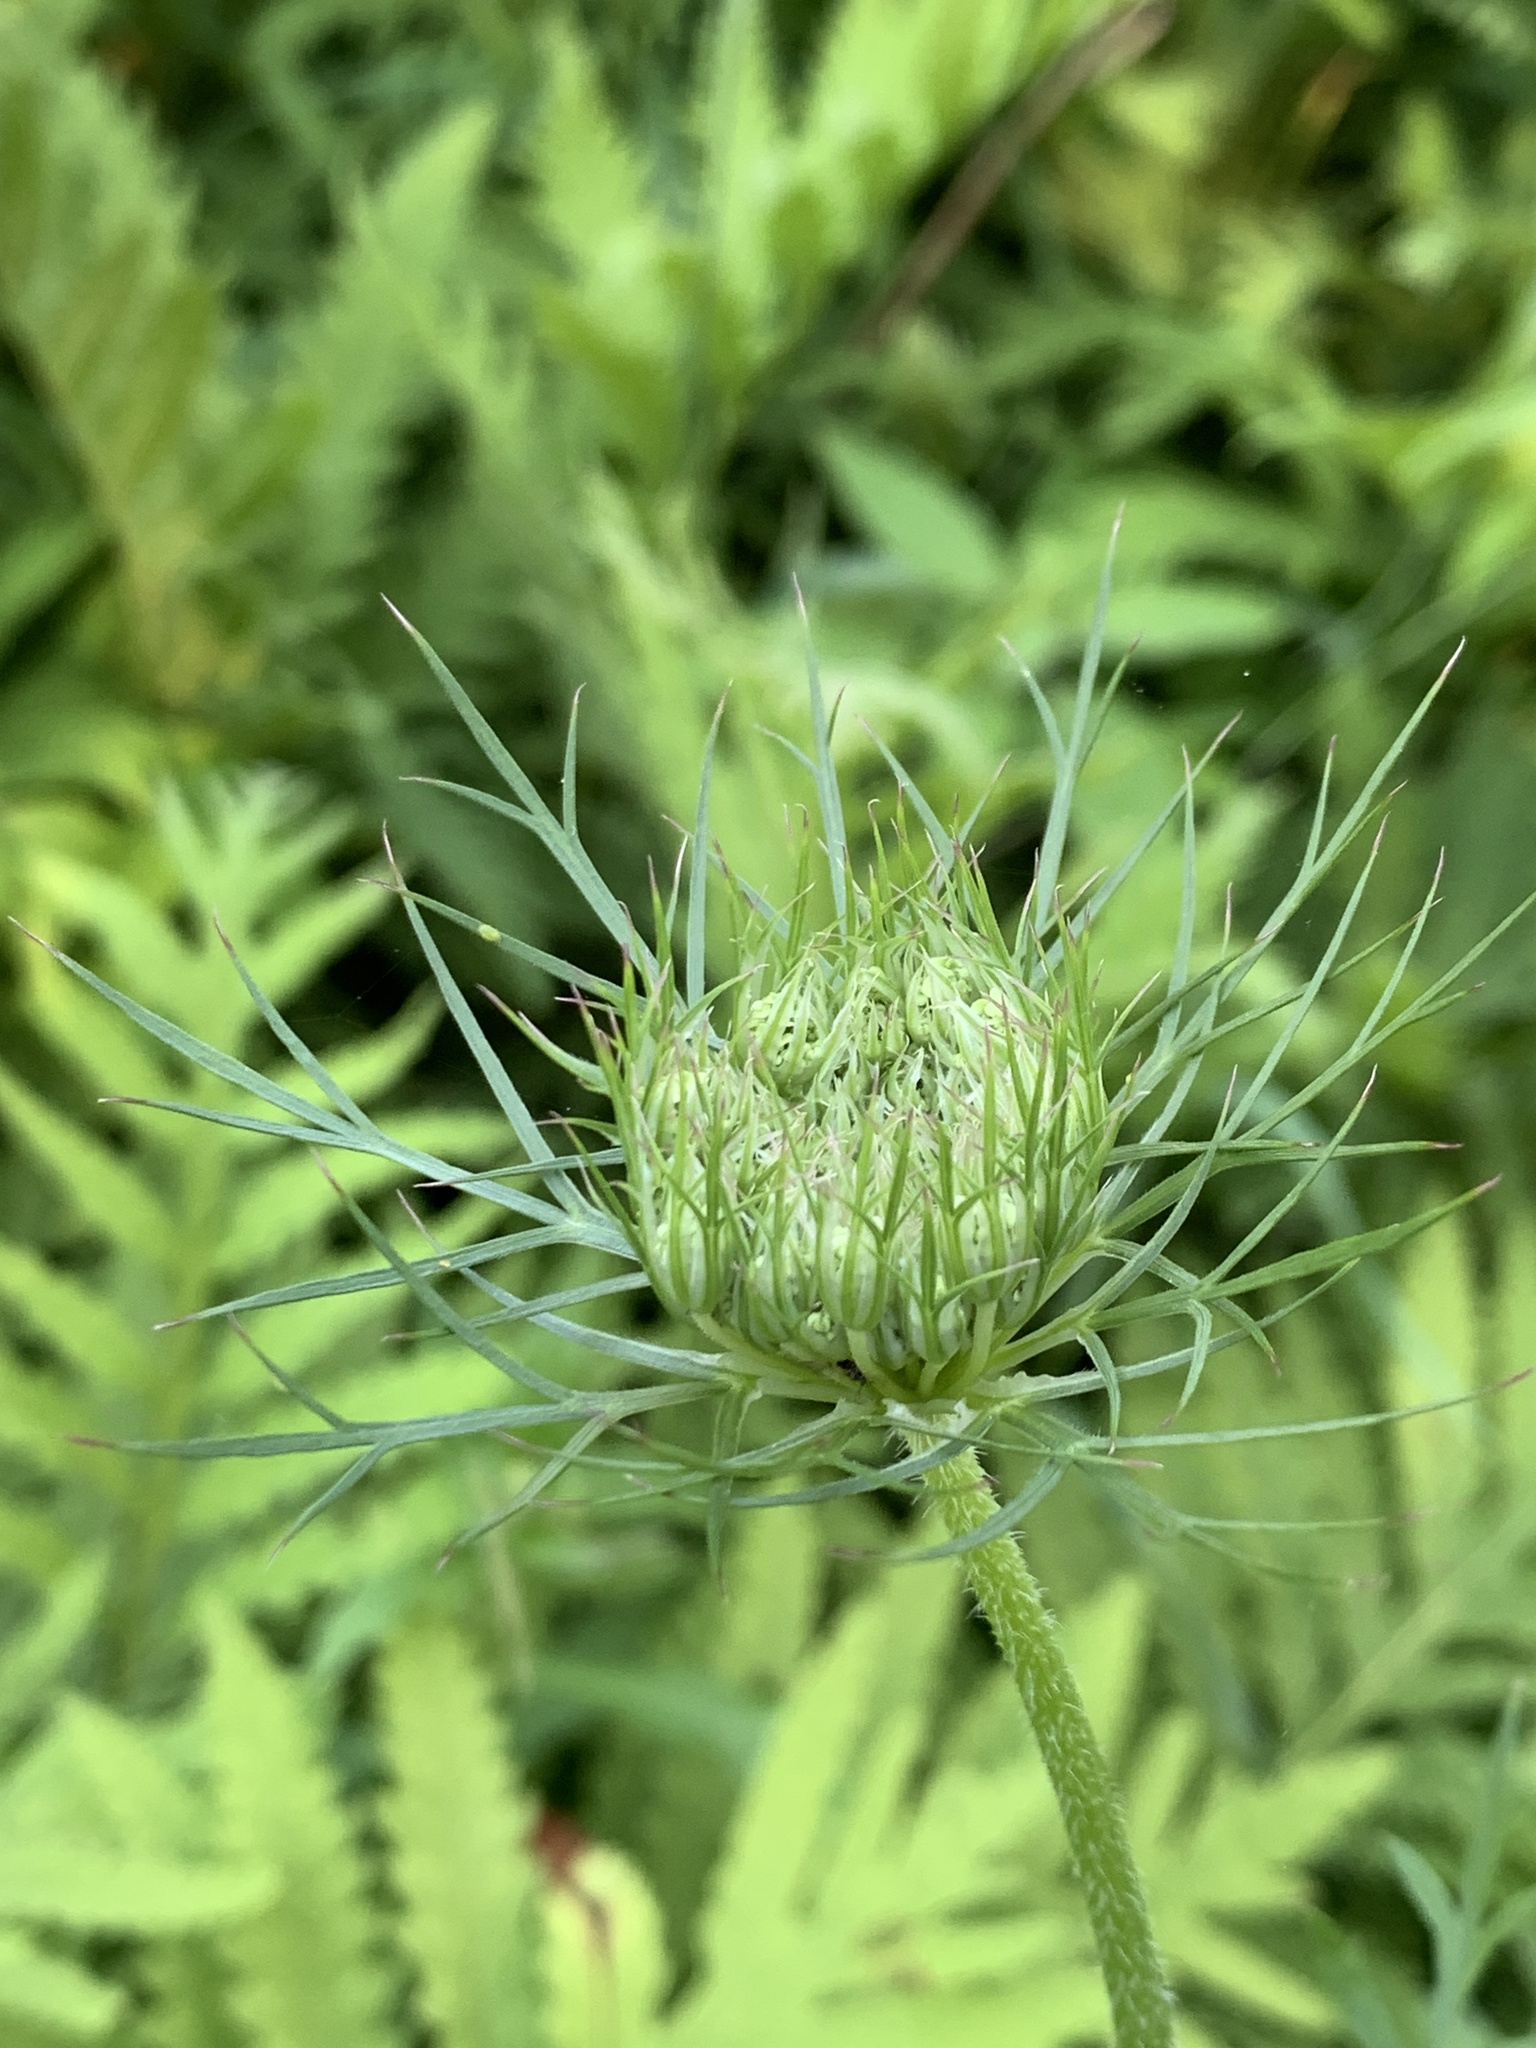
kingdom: Plantae
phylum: Tracheophyta
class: Magnoliopsida
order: Apiales
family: Apiaceae
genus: Daucus
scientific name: Daucus carota
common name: Wild carrot
